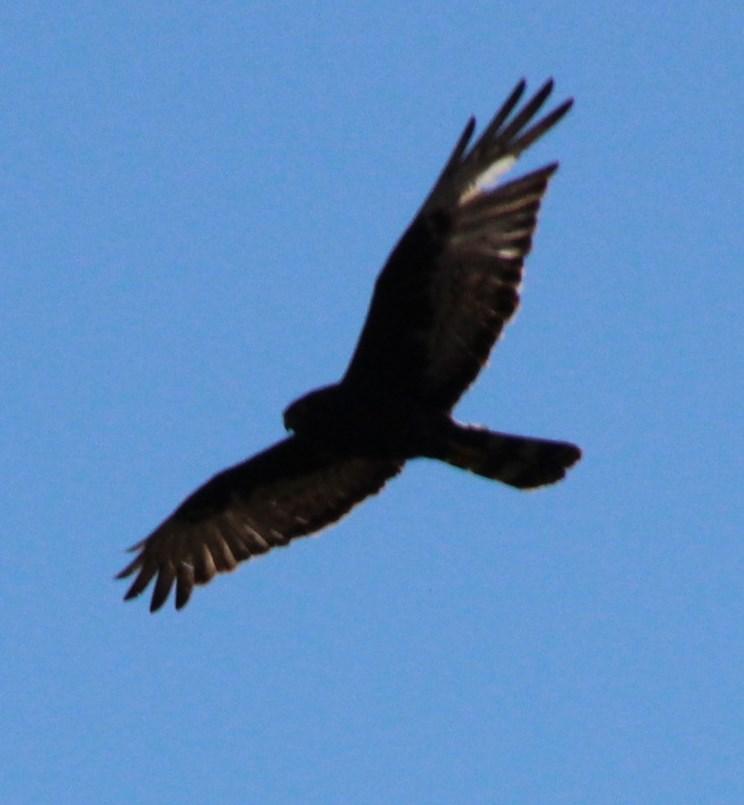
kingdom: Animalia
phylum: Chordata
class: Aves
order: Accipitriformes
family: Accipitridae
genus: Circus
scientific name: Circus maurus
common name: Black harrier
